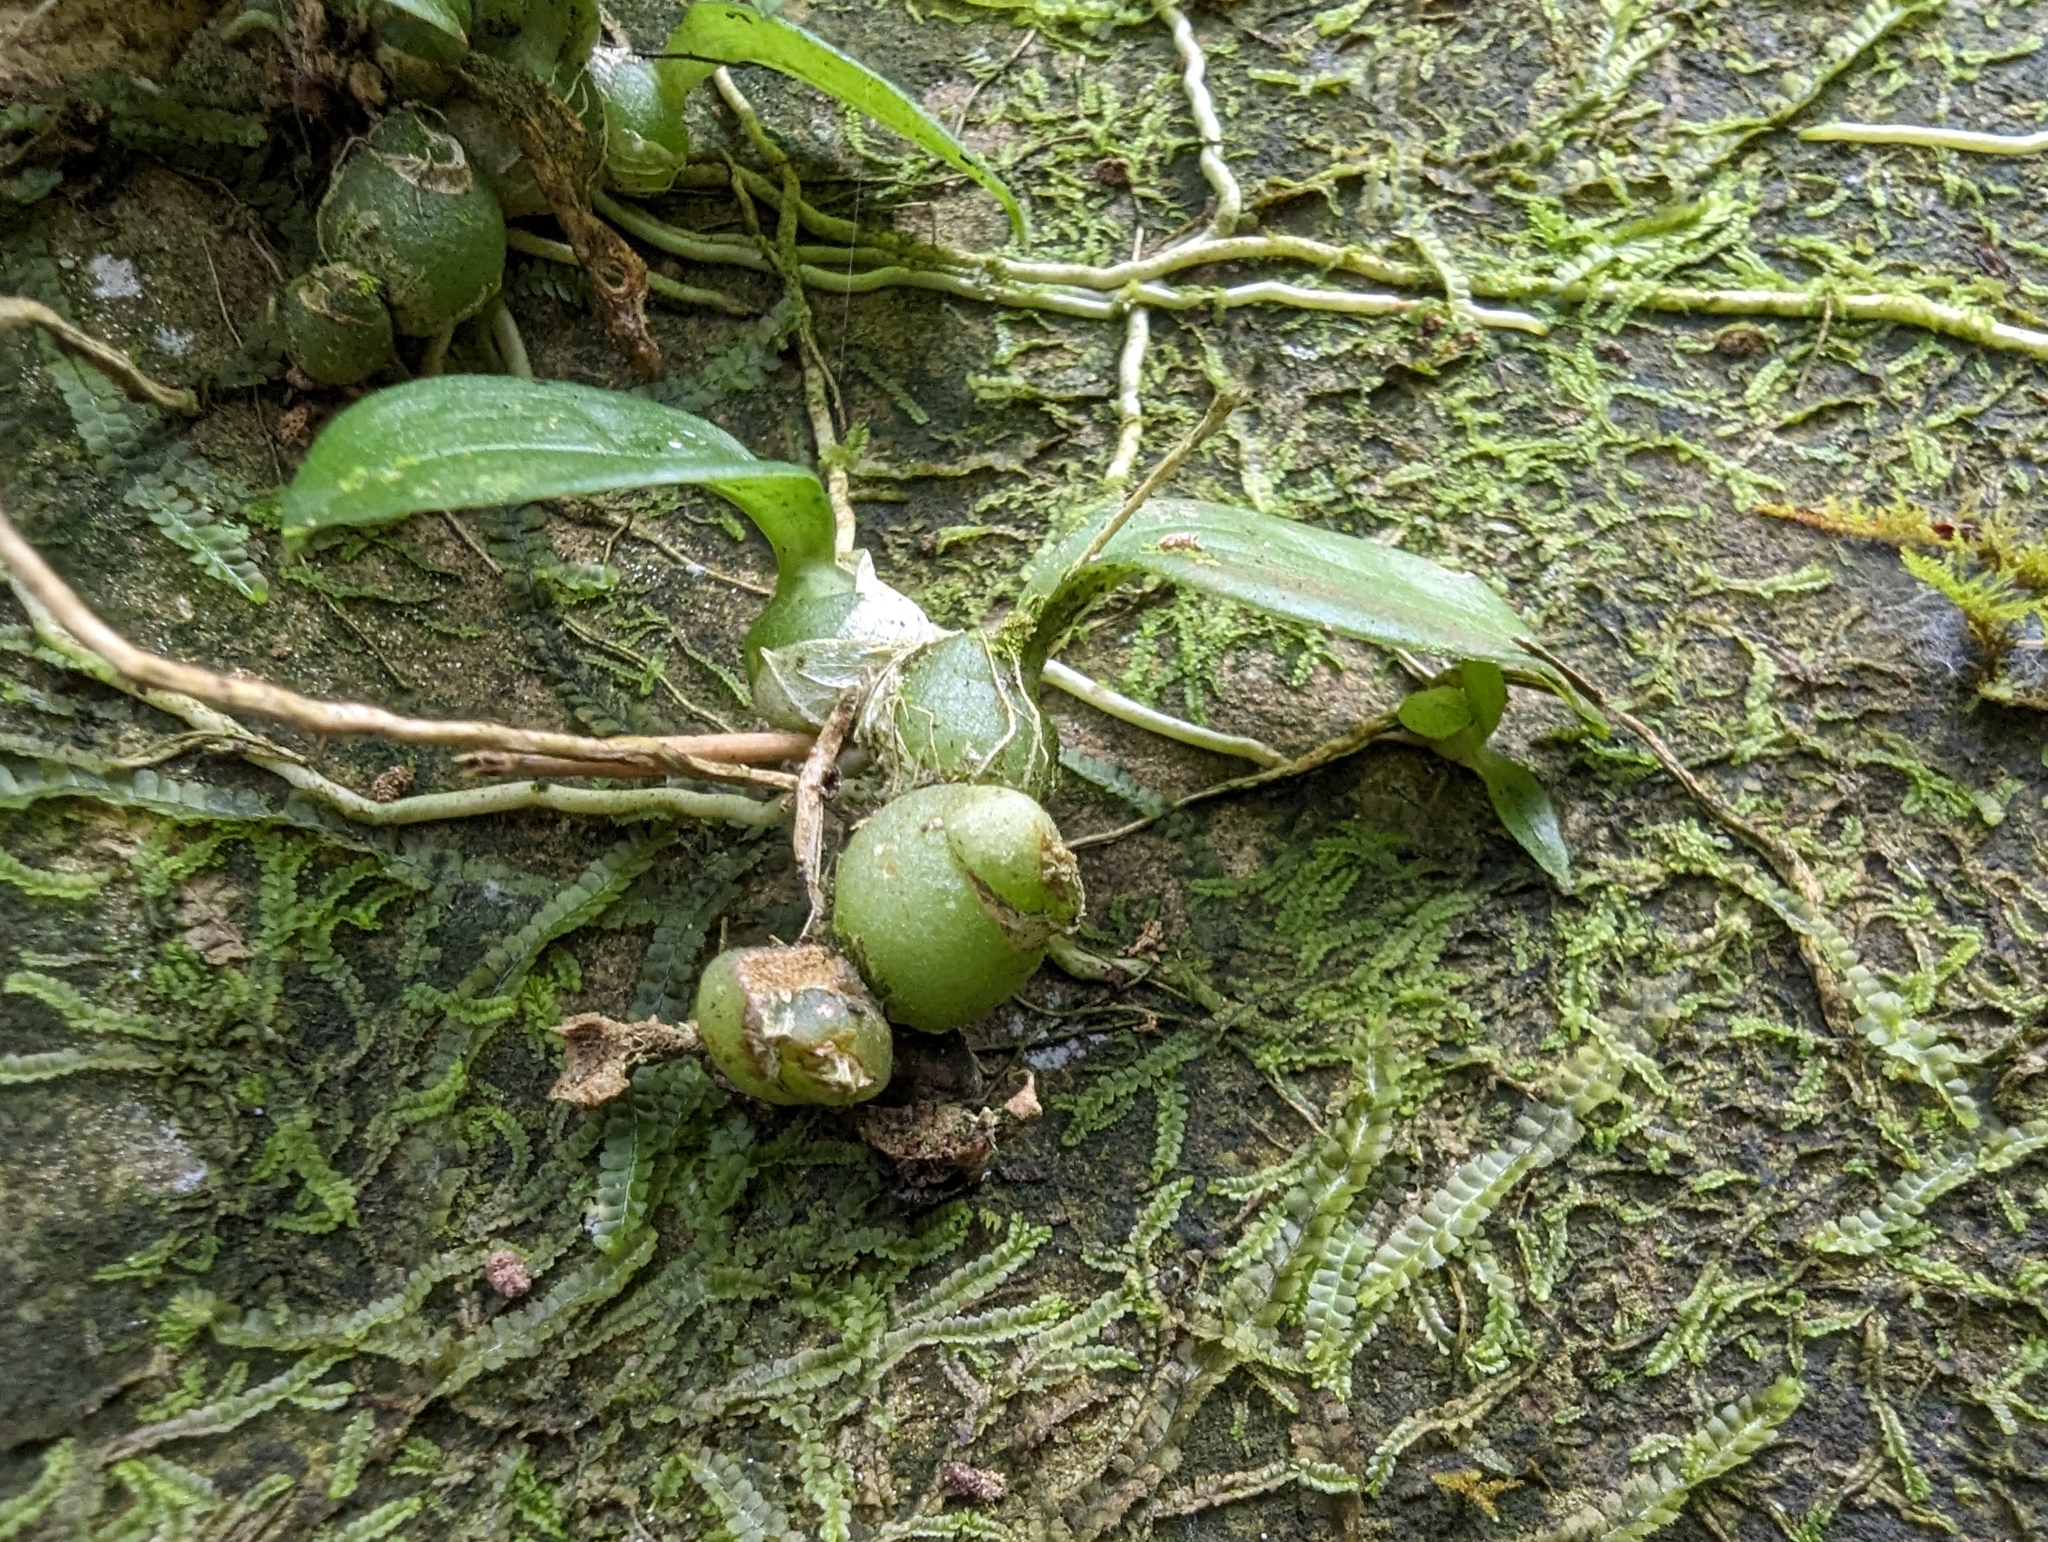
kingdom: Plantae
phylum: Tracheophyta
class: Liliopsida
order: Asparagales
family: Orchidaceae
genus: Liparis
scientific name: Liparis nakaharae
